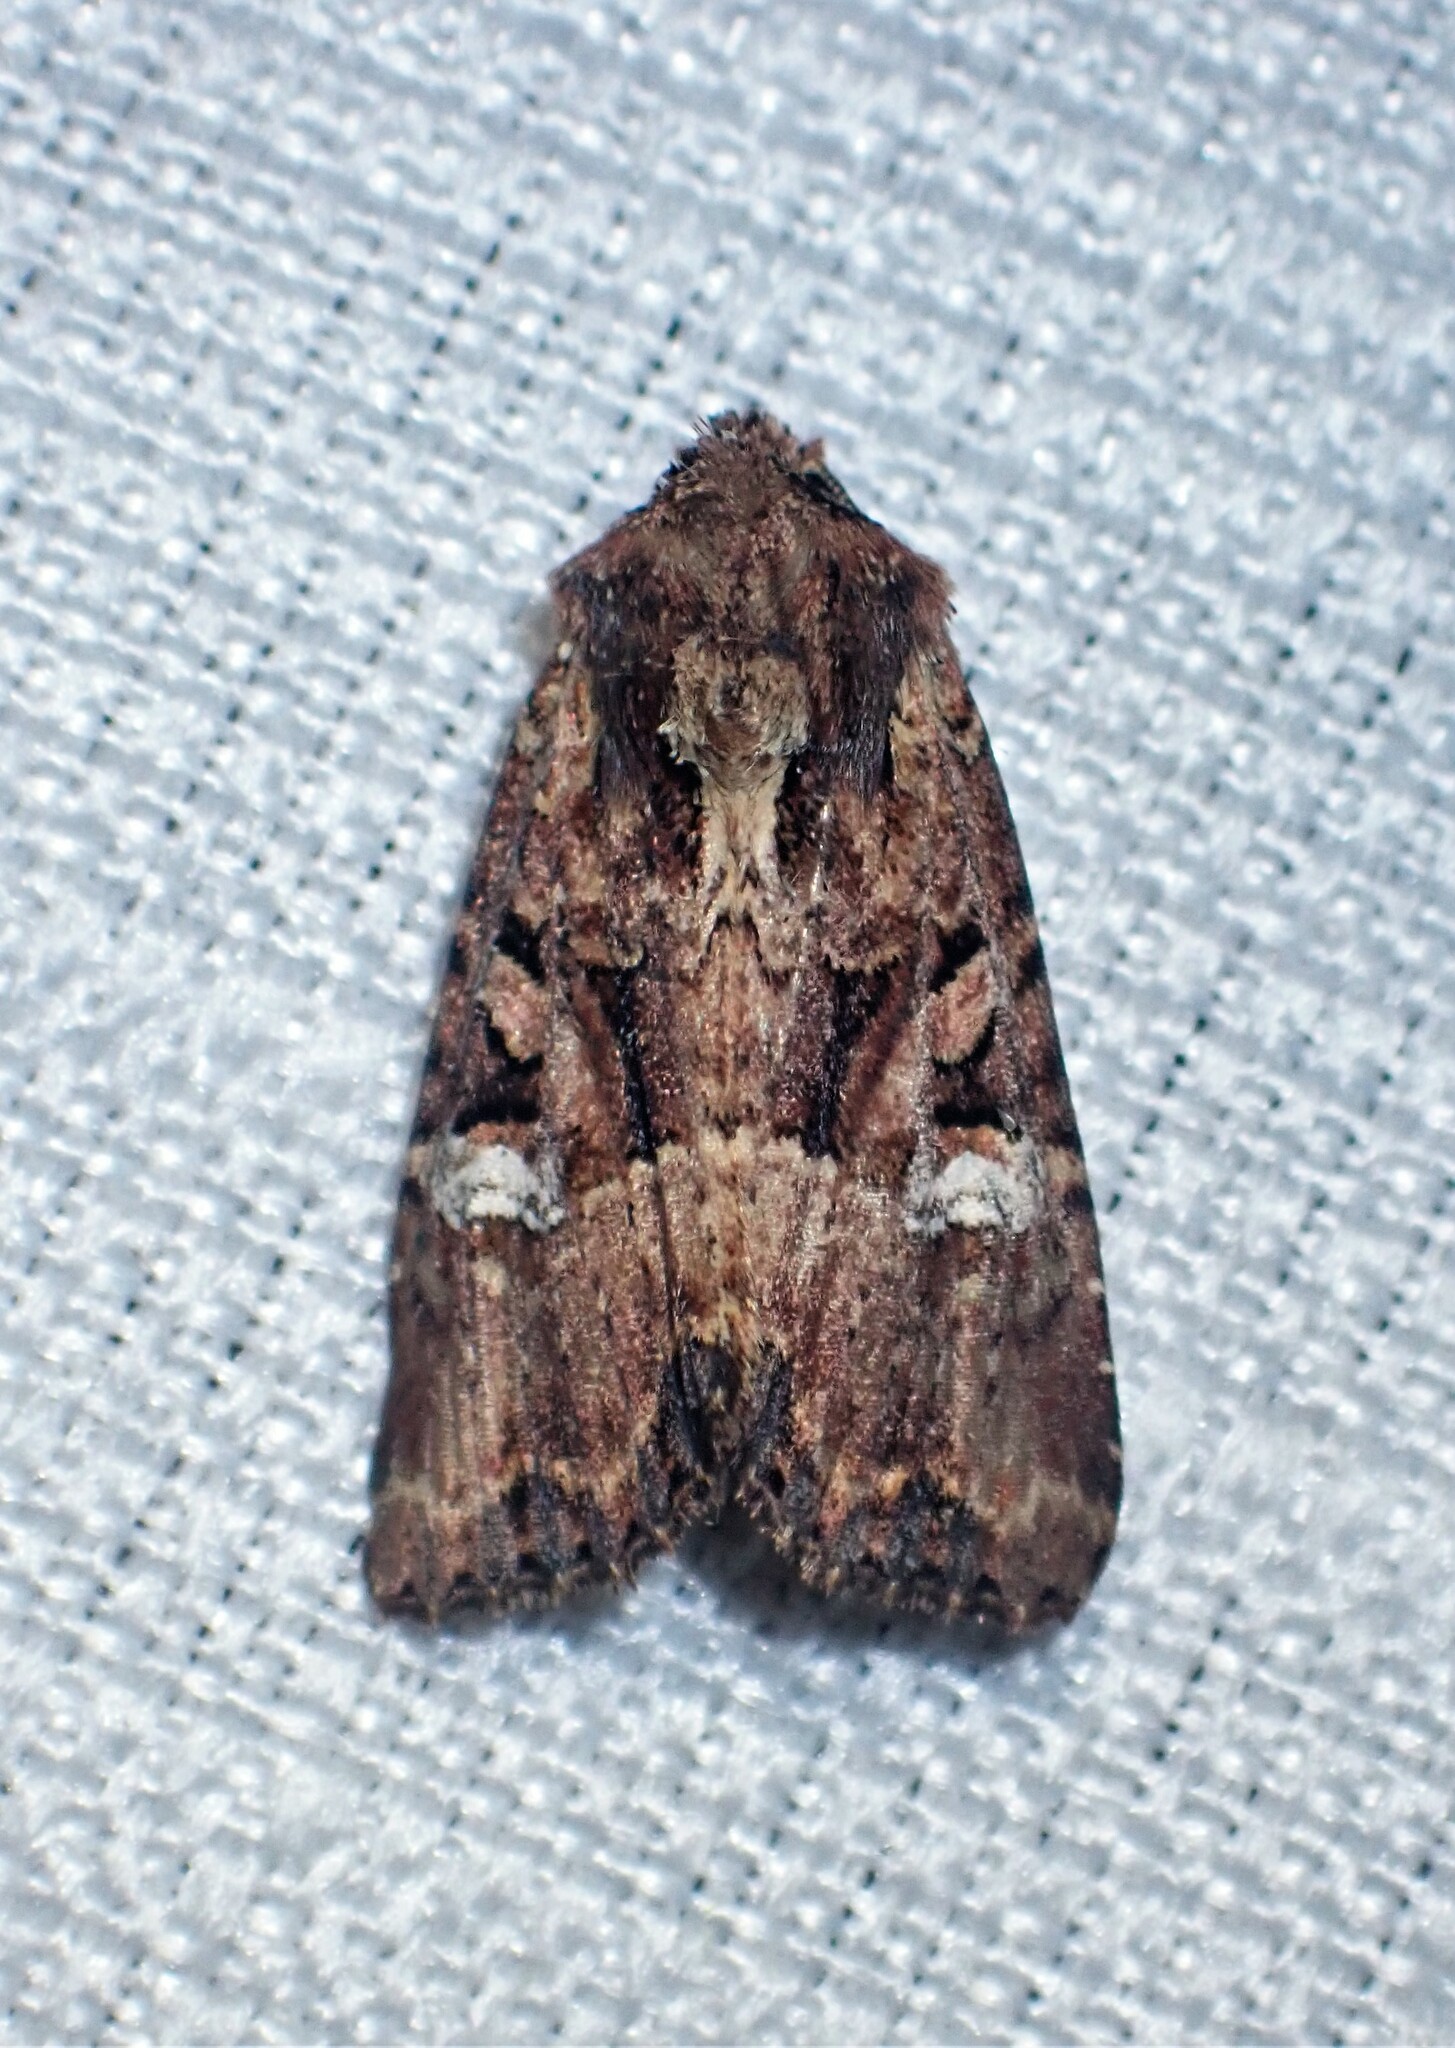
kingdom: Animalia
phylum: Arthropoda
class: Insecta
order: Lepidoptera
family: Noctuidae
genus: Mesapamea
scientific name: Mesapamea storai
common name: Owlet moth
